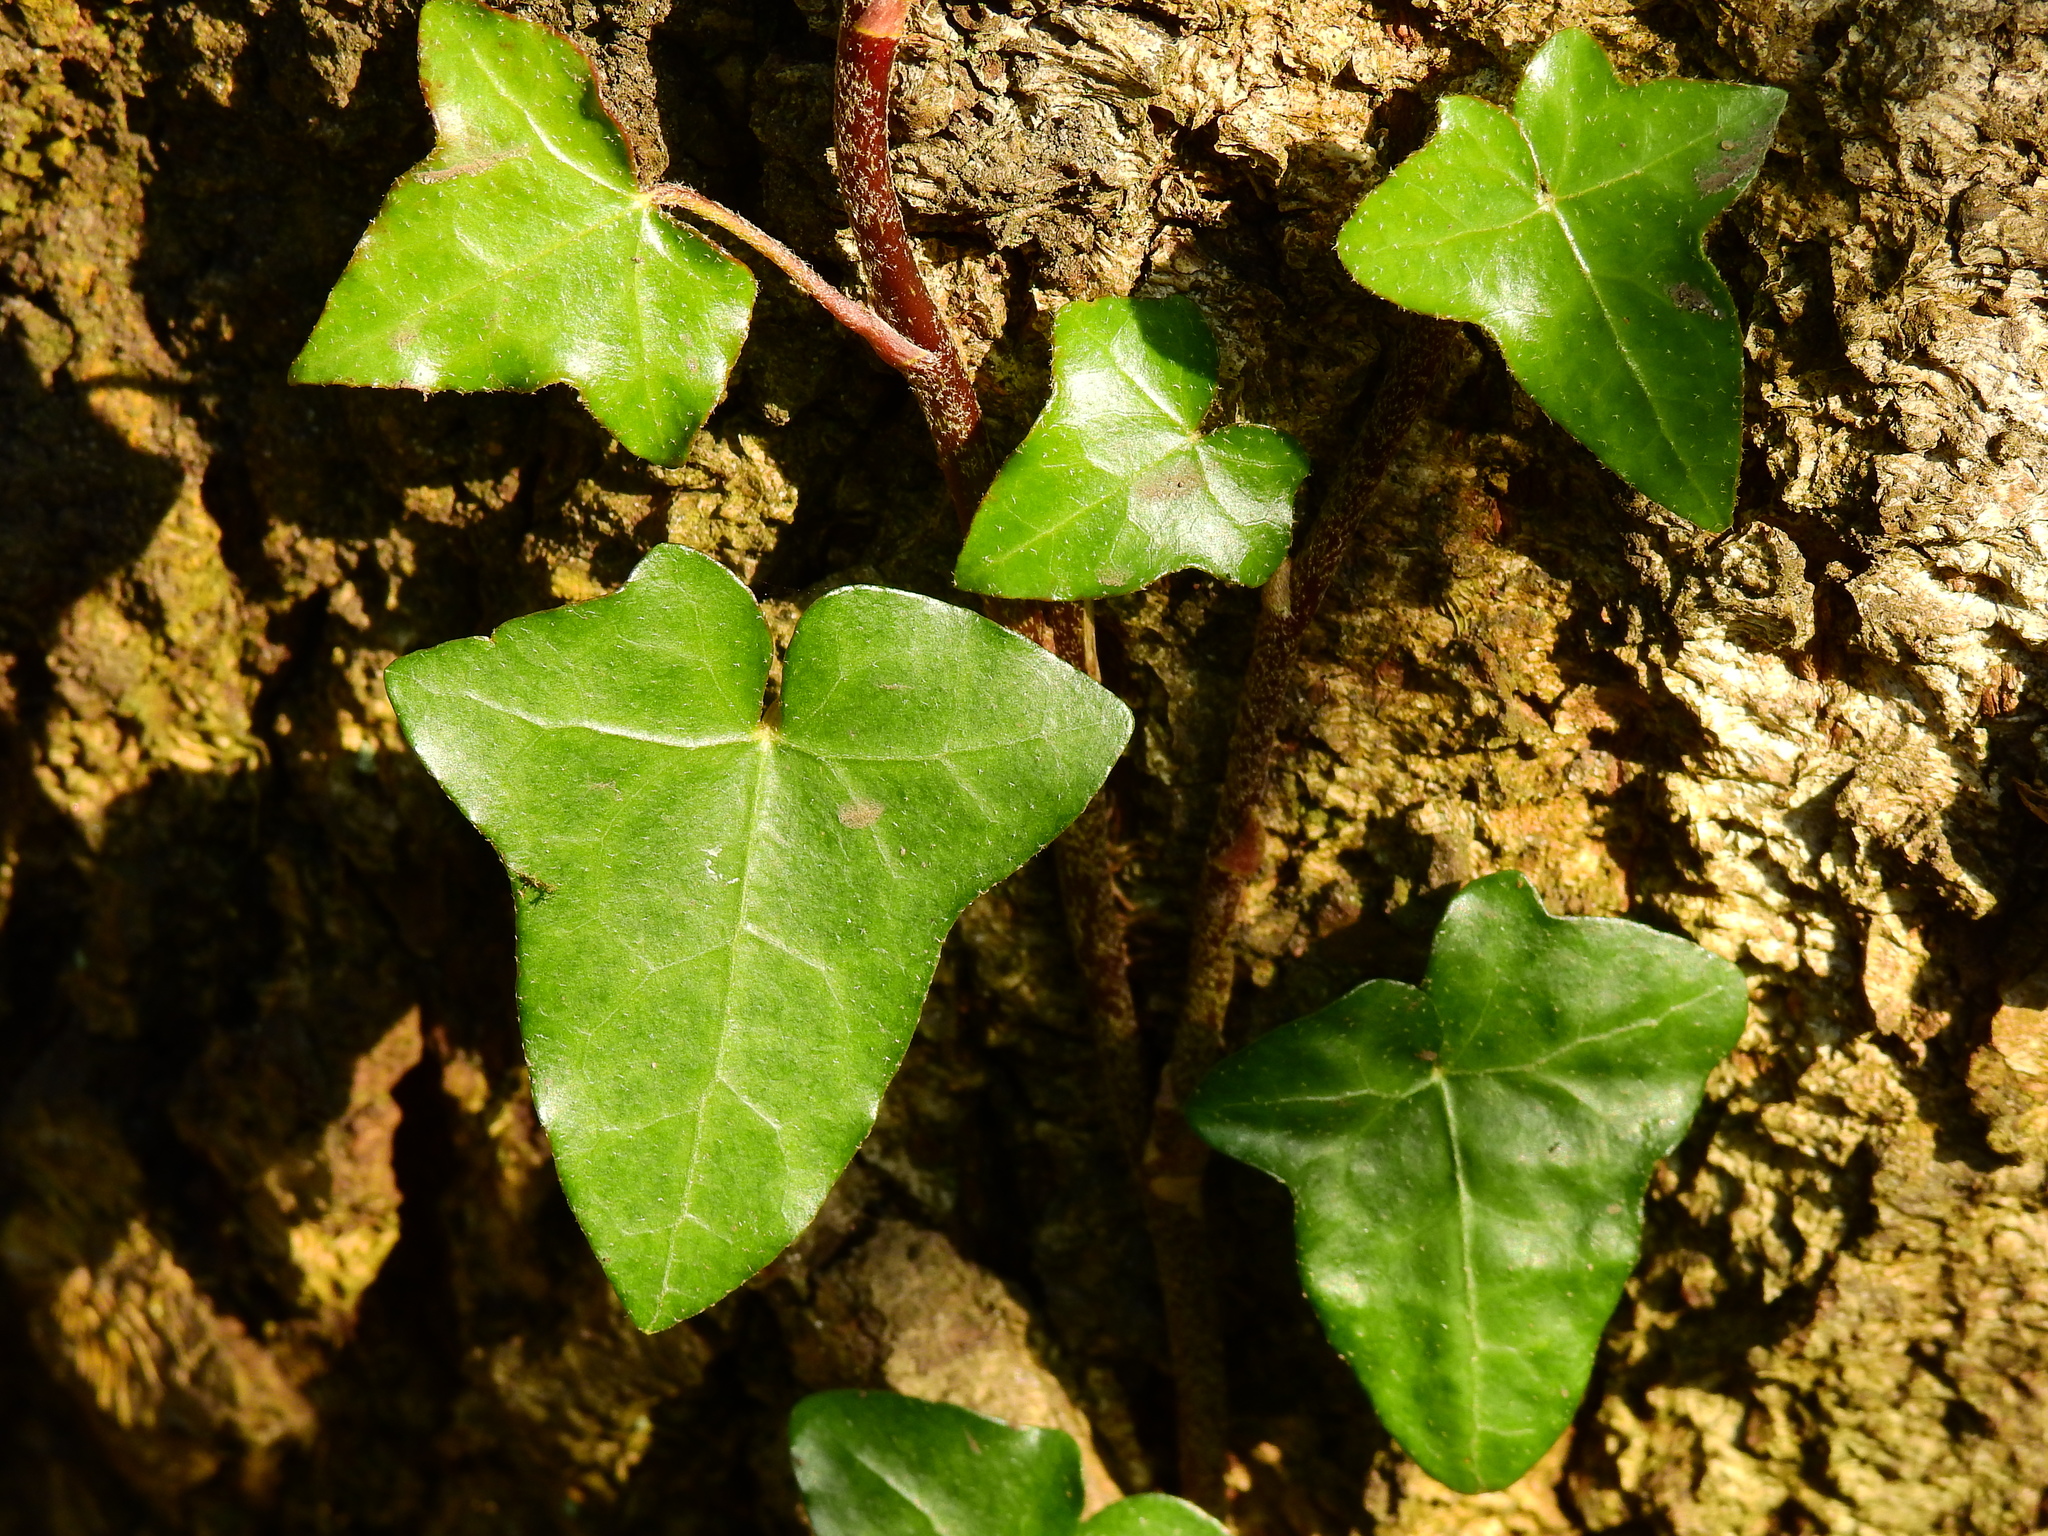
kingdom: Plantae
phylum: Tracheophyta
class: Magnoliopsida
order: Apiales
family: Araliaceae
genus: Hedera
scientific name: Hedera helix
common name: Ivy
